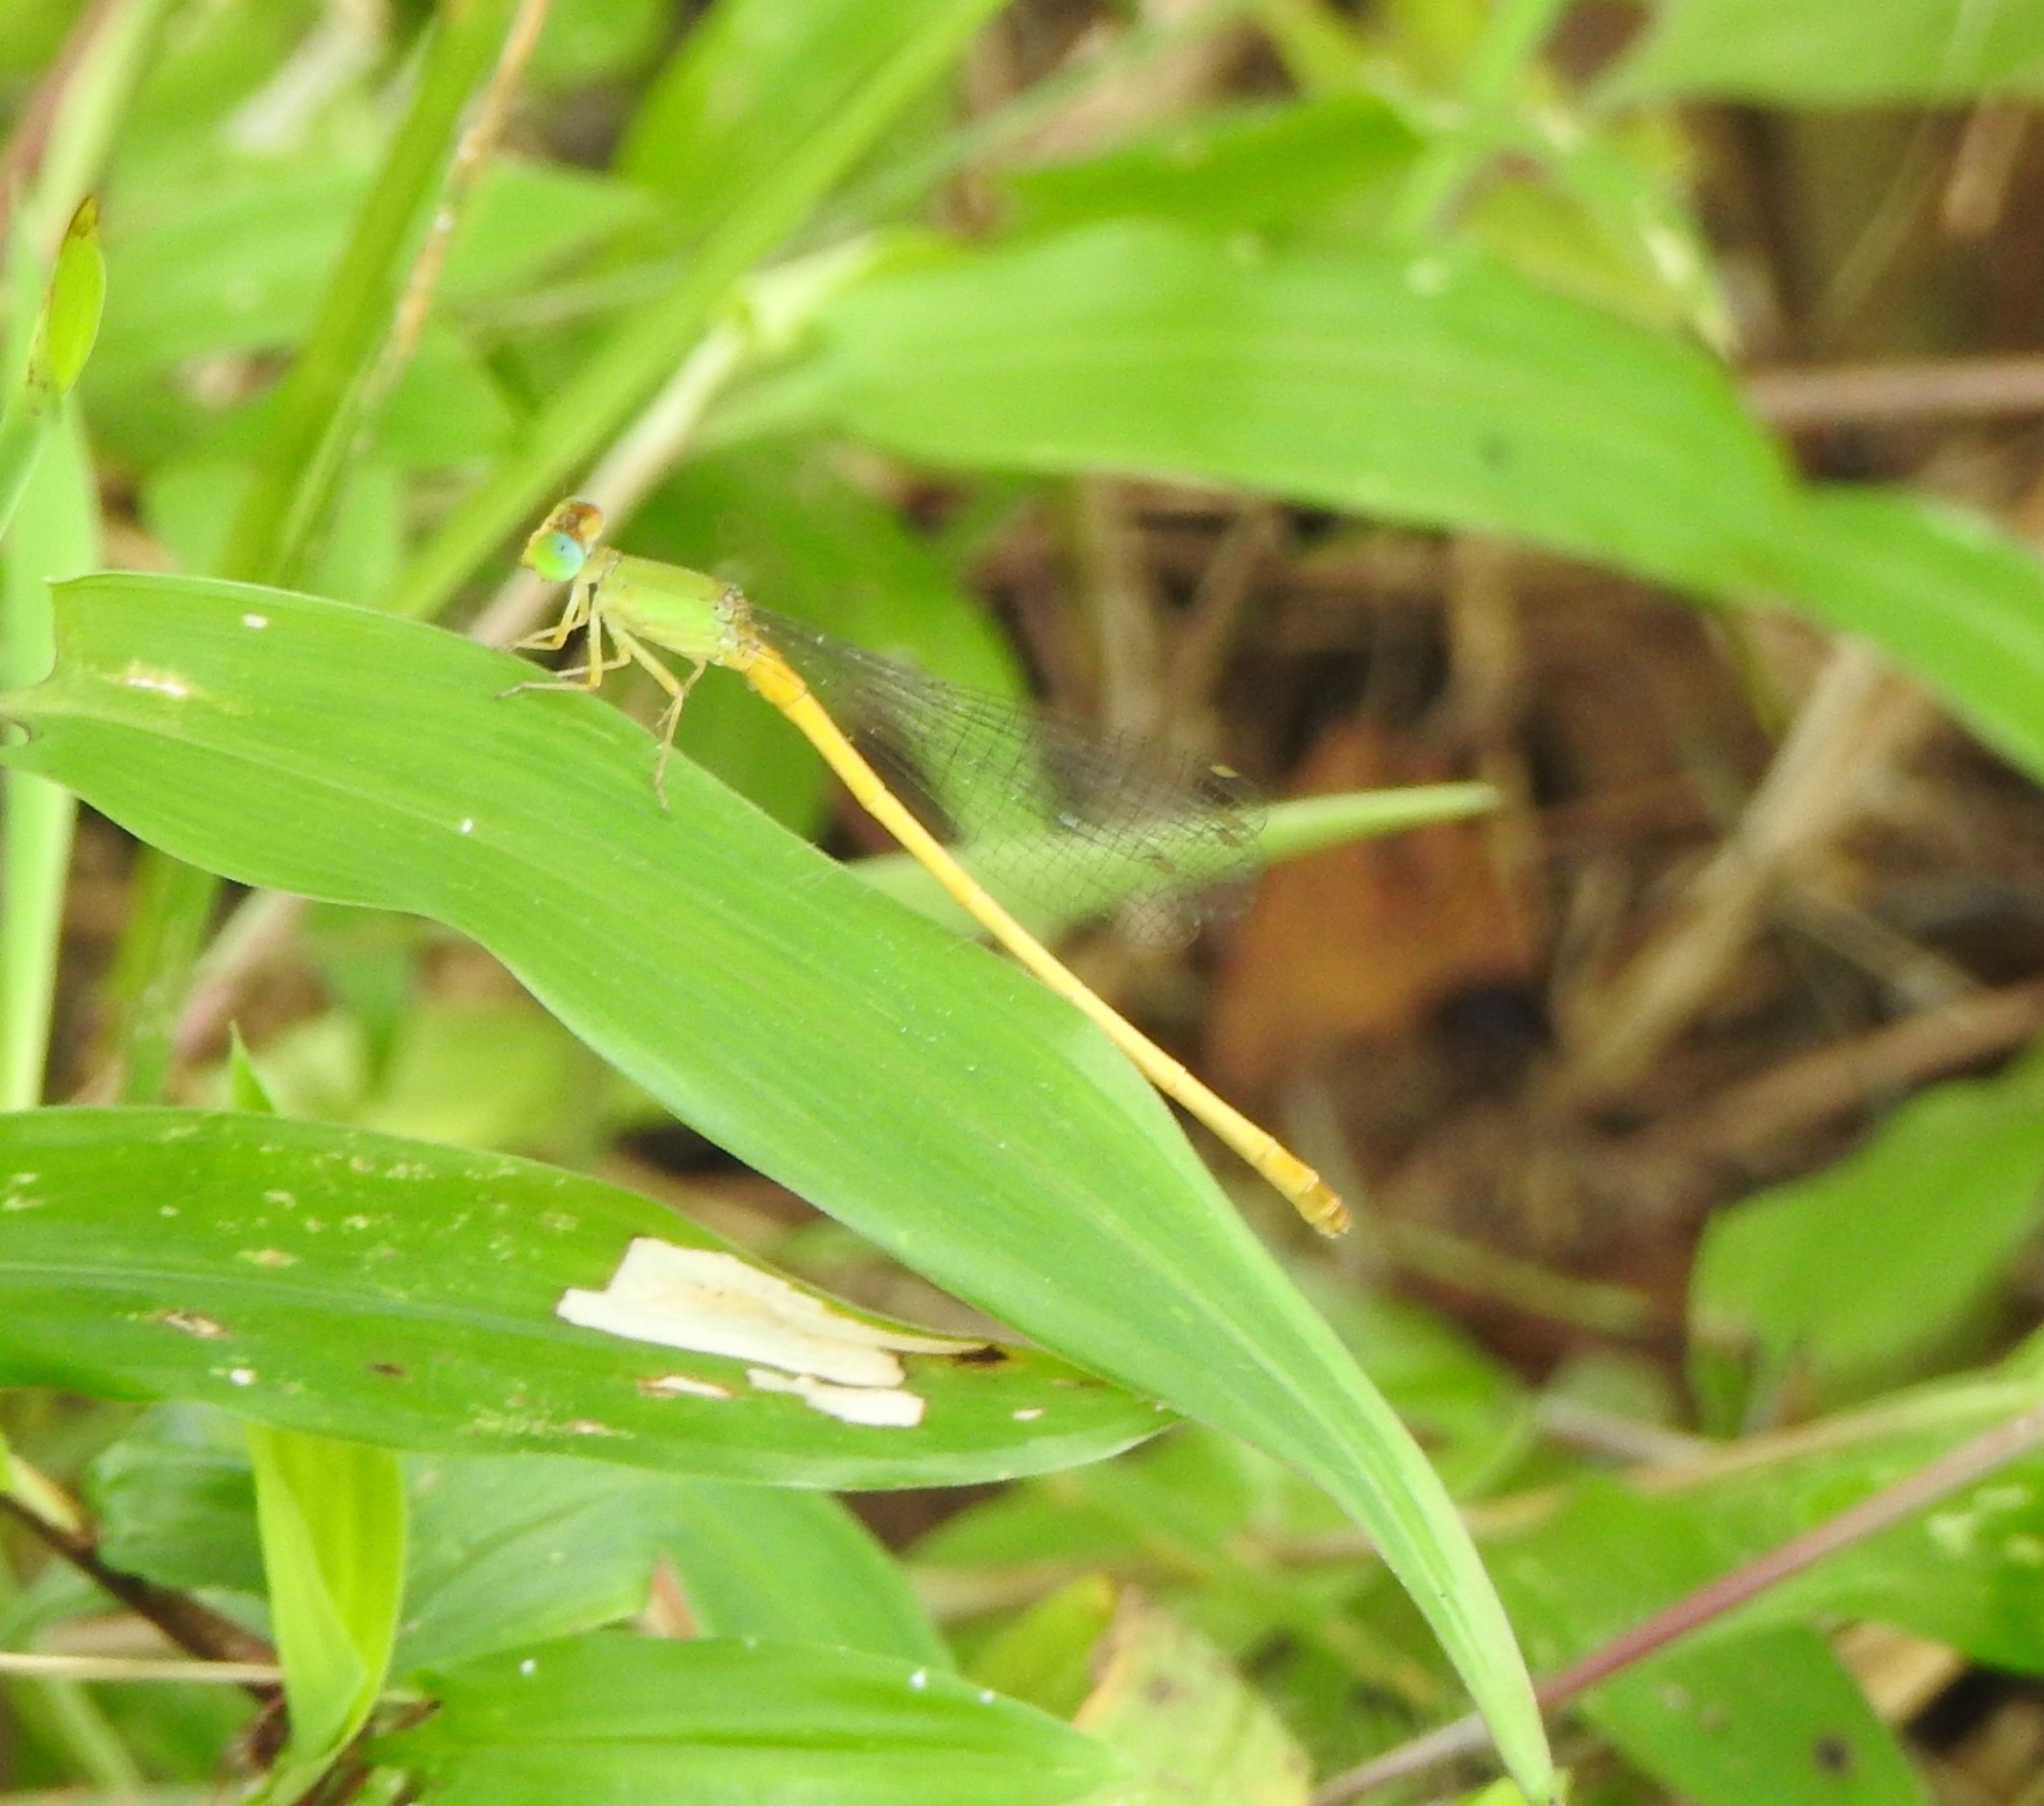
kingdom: Animalia
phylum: Arthropoda
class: Insecta
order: Odonata
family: Coenagrionidae
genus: Ceriagrion
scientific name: Ceriagrion coromandelianum
